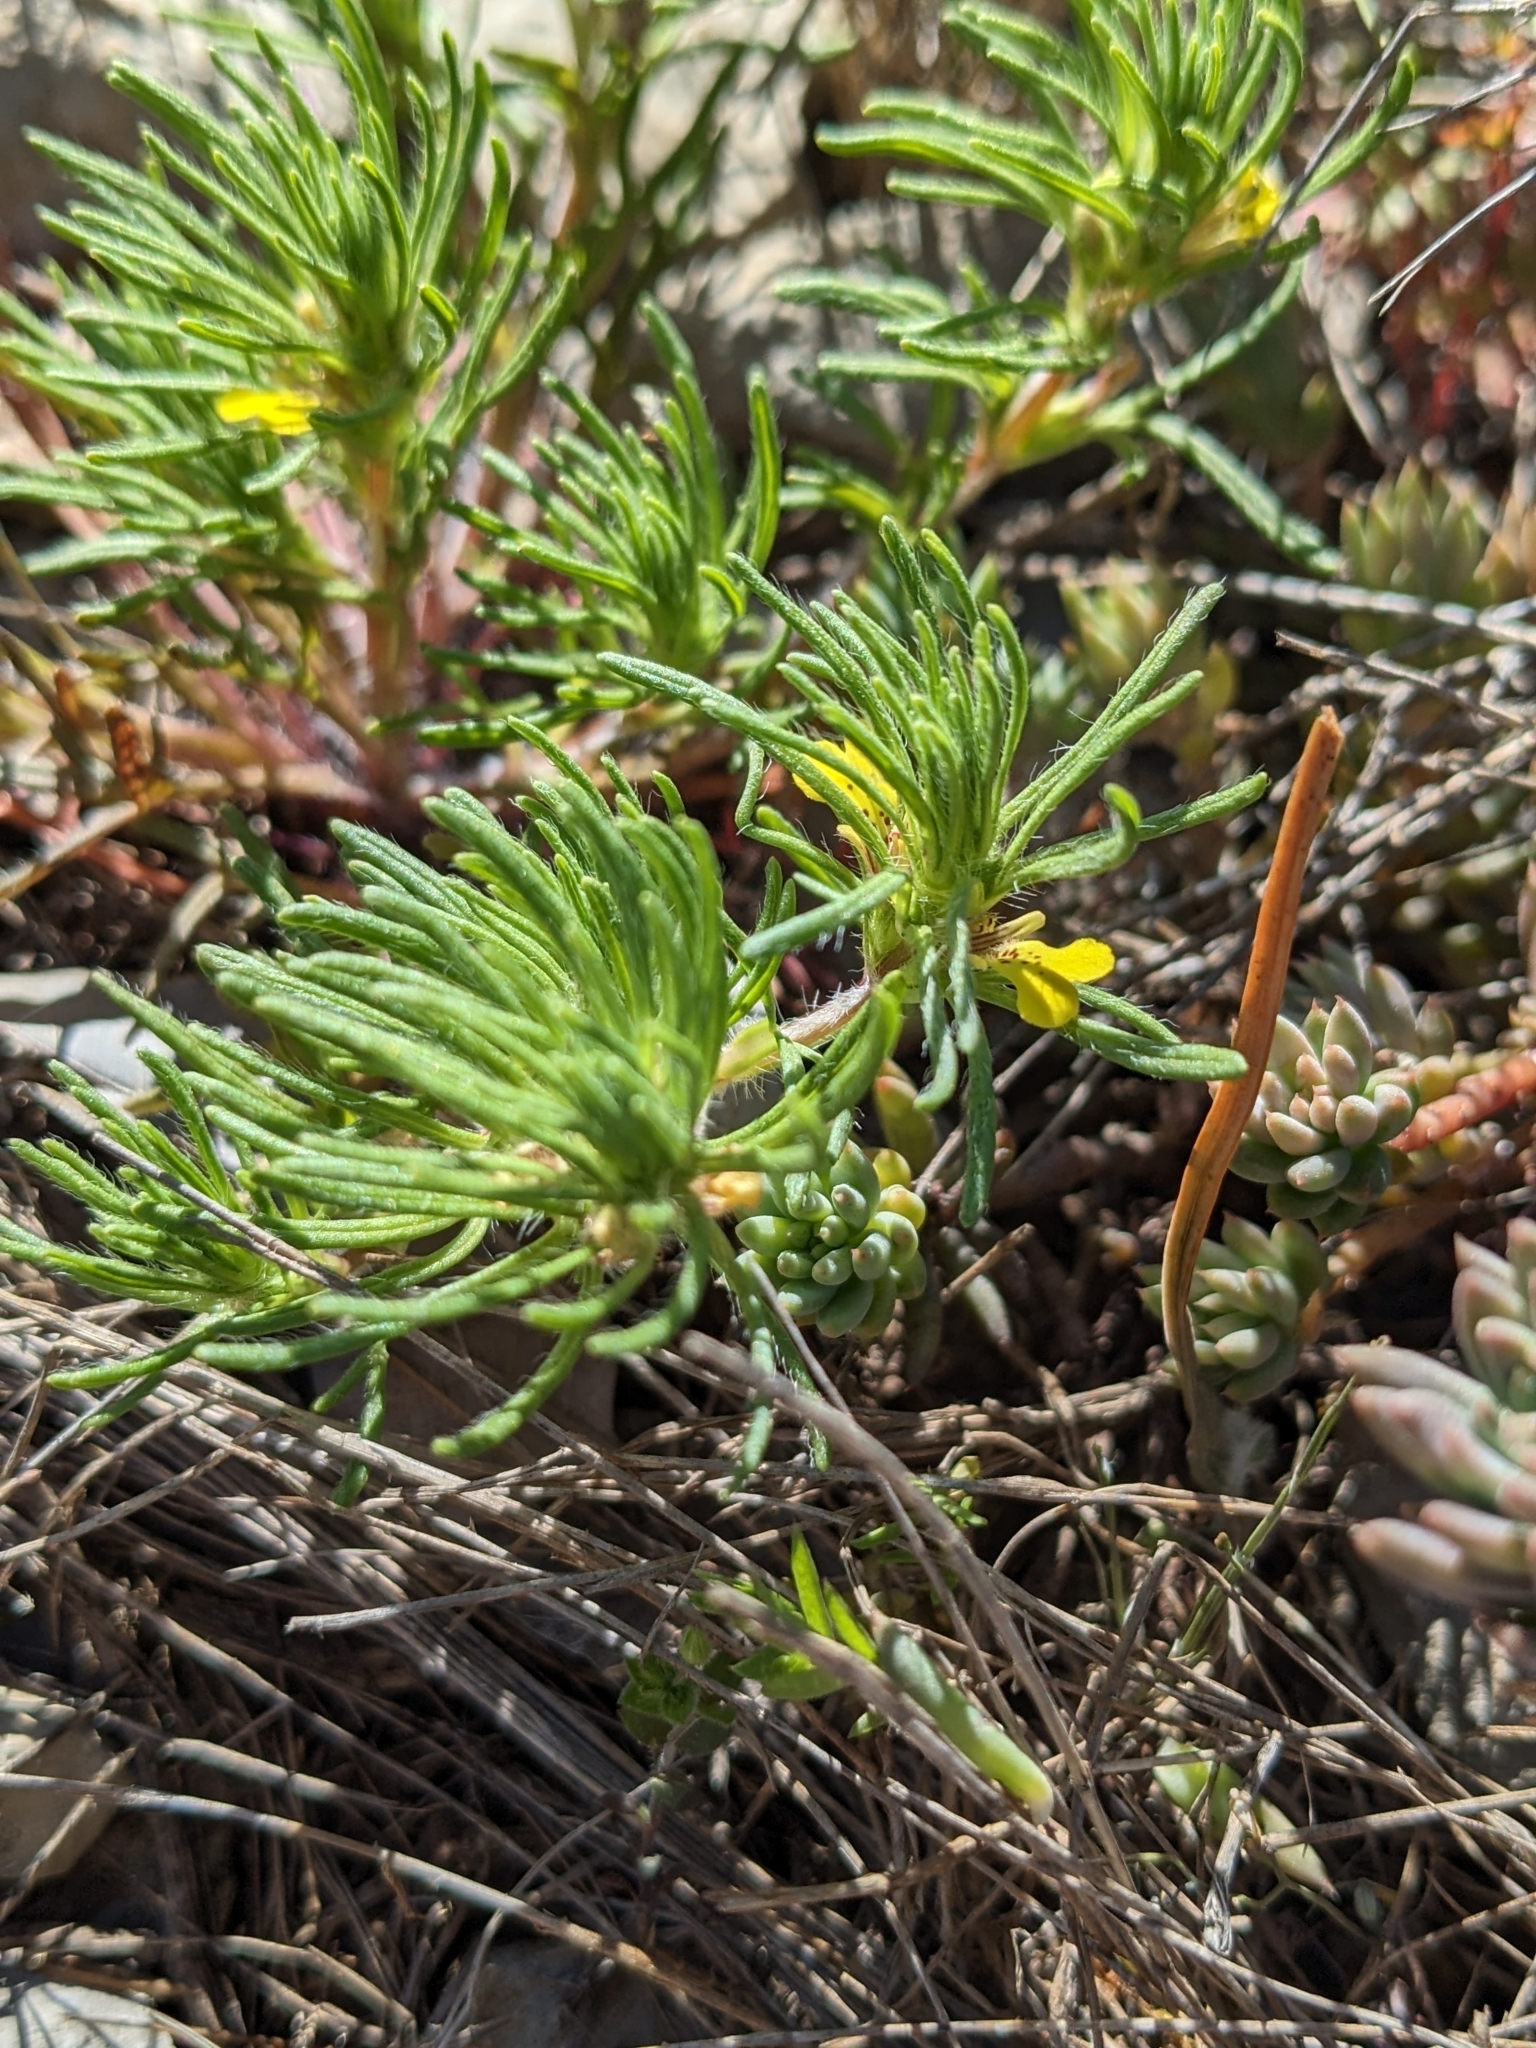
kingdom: Plantae
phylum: Tracheophyta
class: Magnoliopsida
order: Lamiales
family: Lamiaceae
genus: Ajuga
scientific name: Ajuga chamaepitys
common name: Ground-pine
